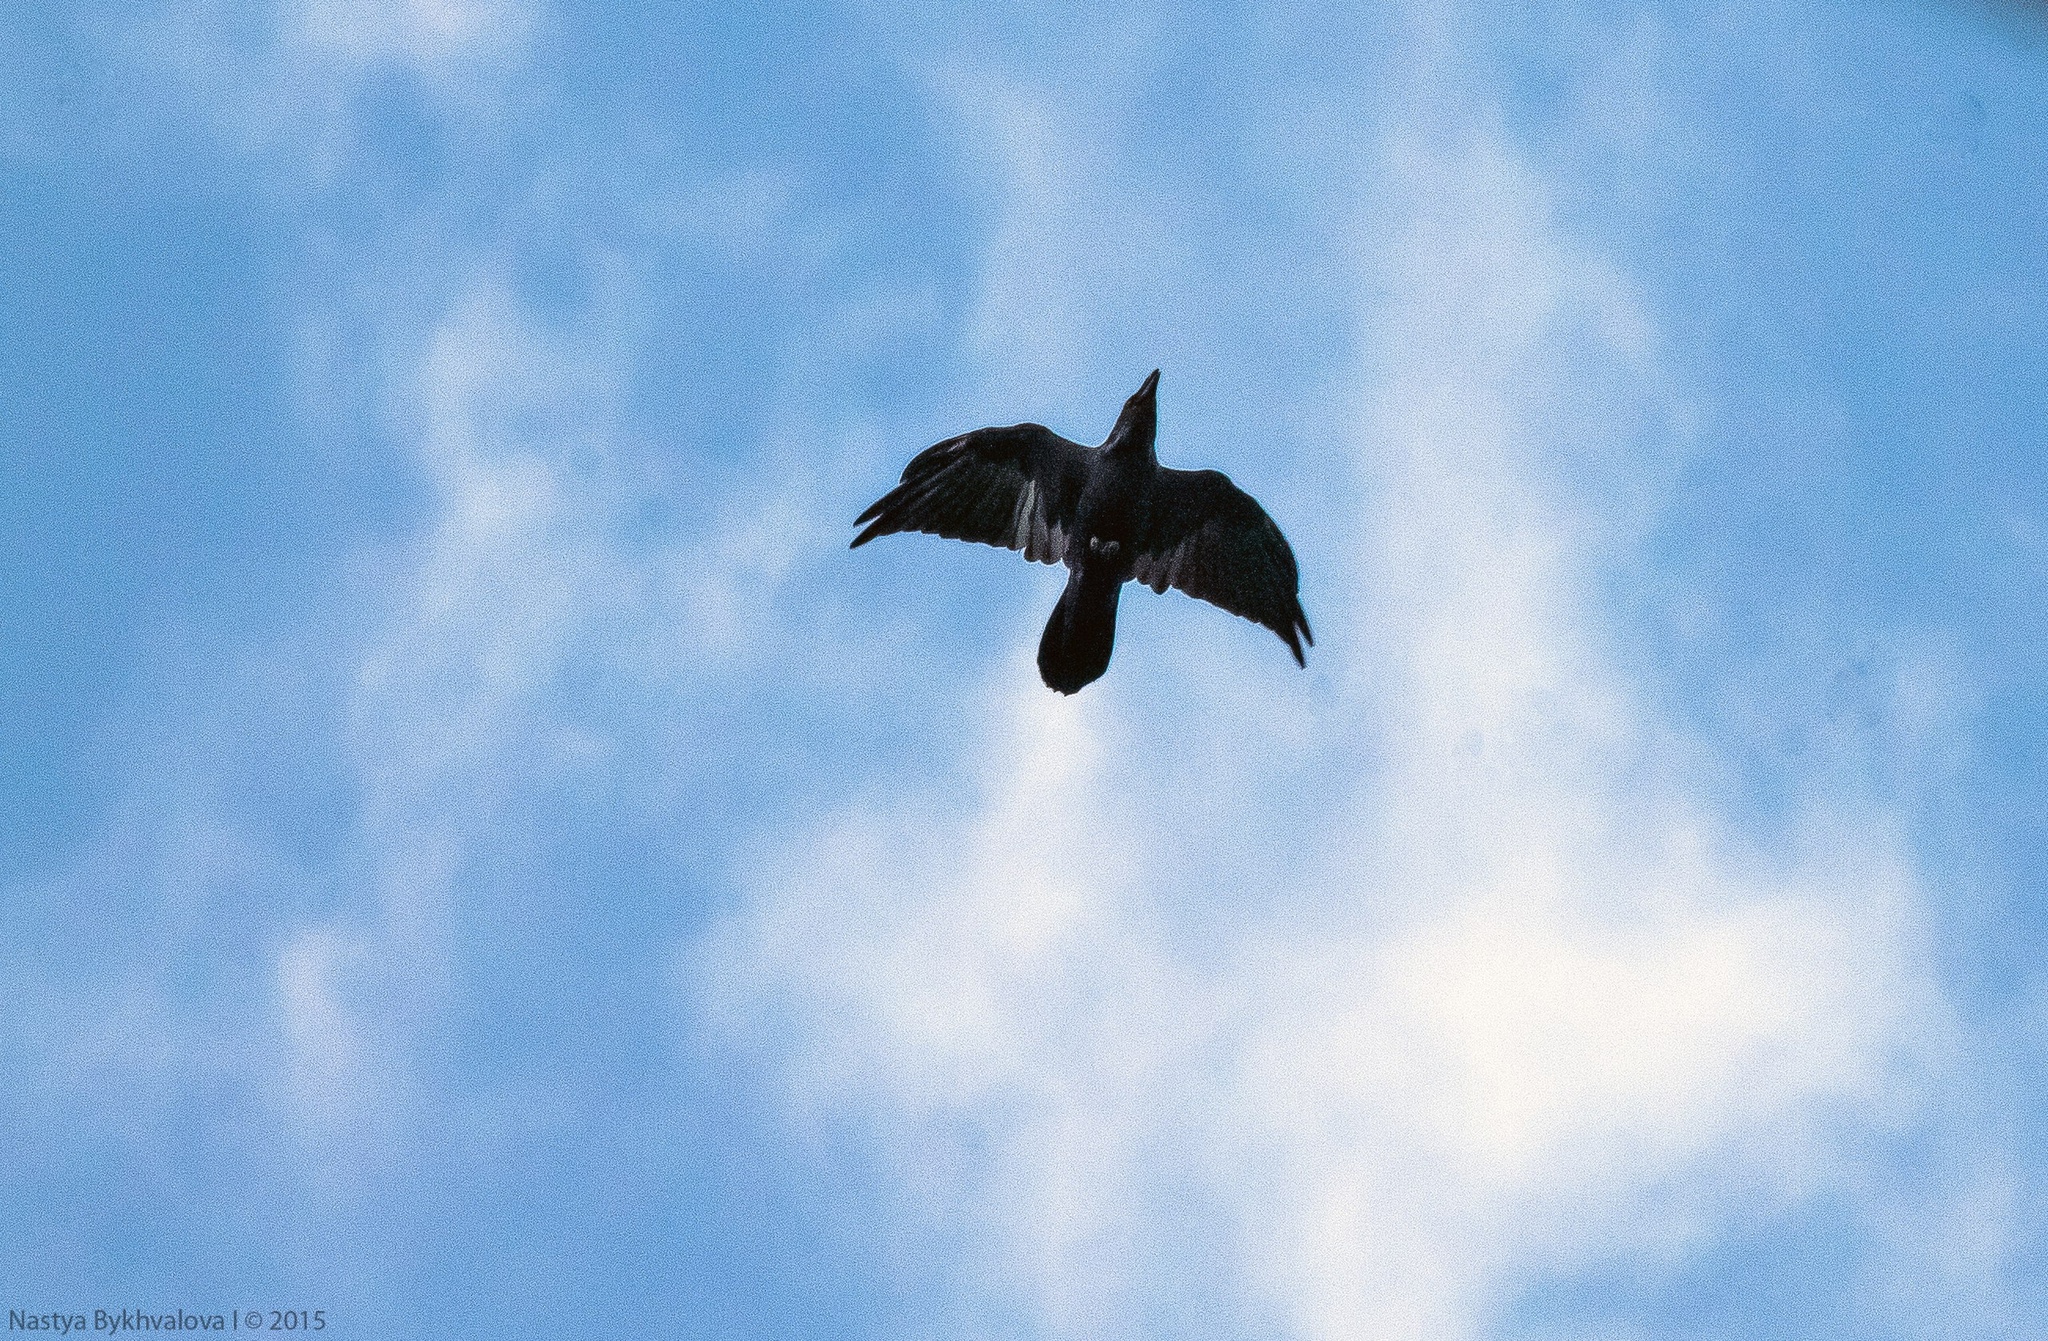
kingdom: Animalia
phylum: Chordata
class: Aves
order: Passeriformes
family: Corvidae
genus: Corvus
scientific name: Corvus corax
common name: Common raven
